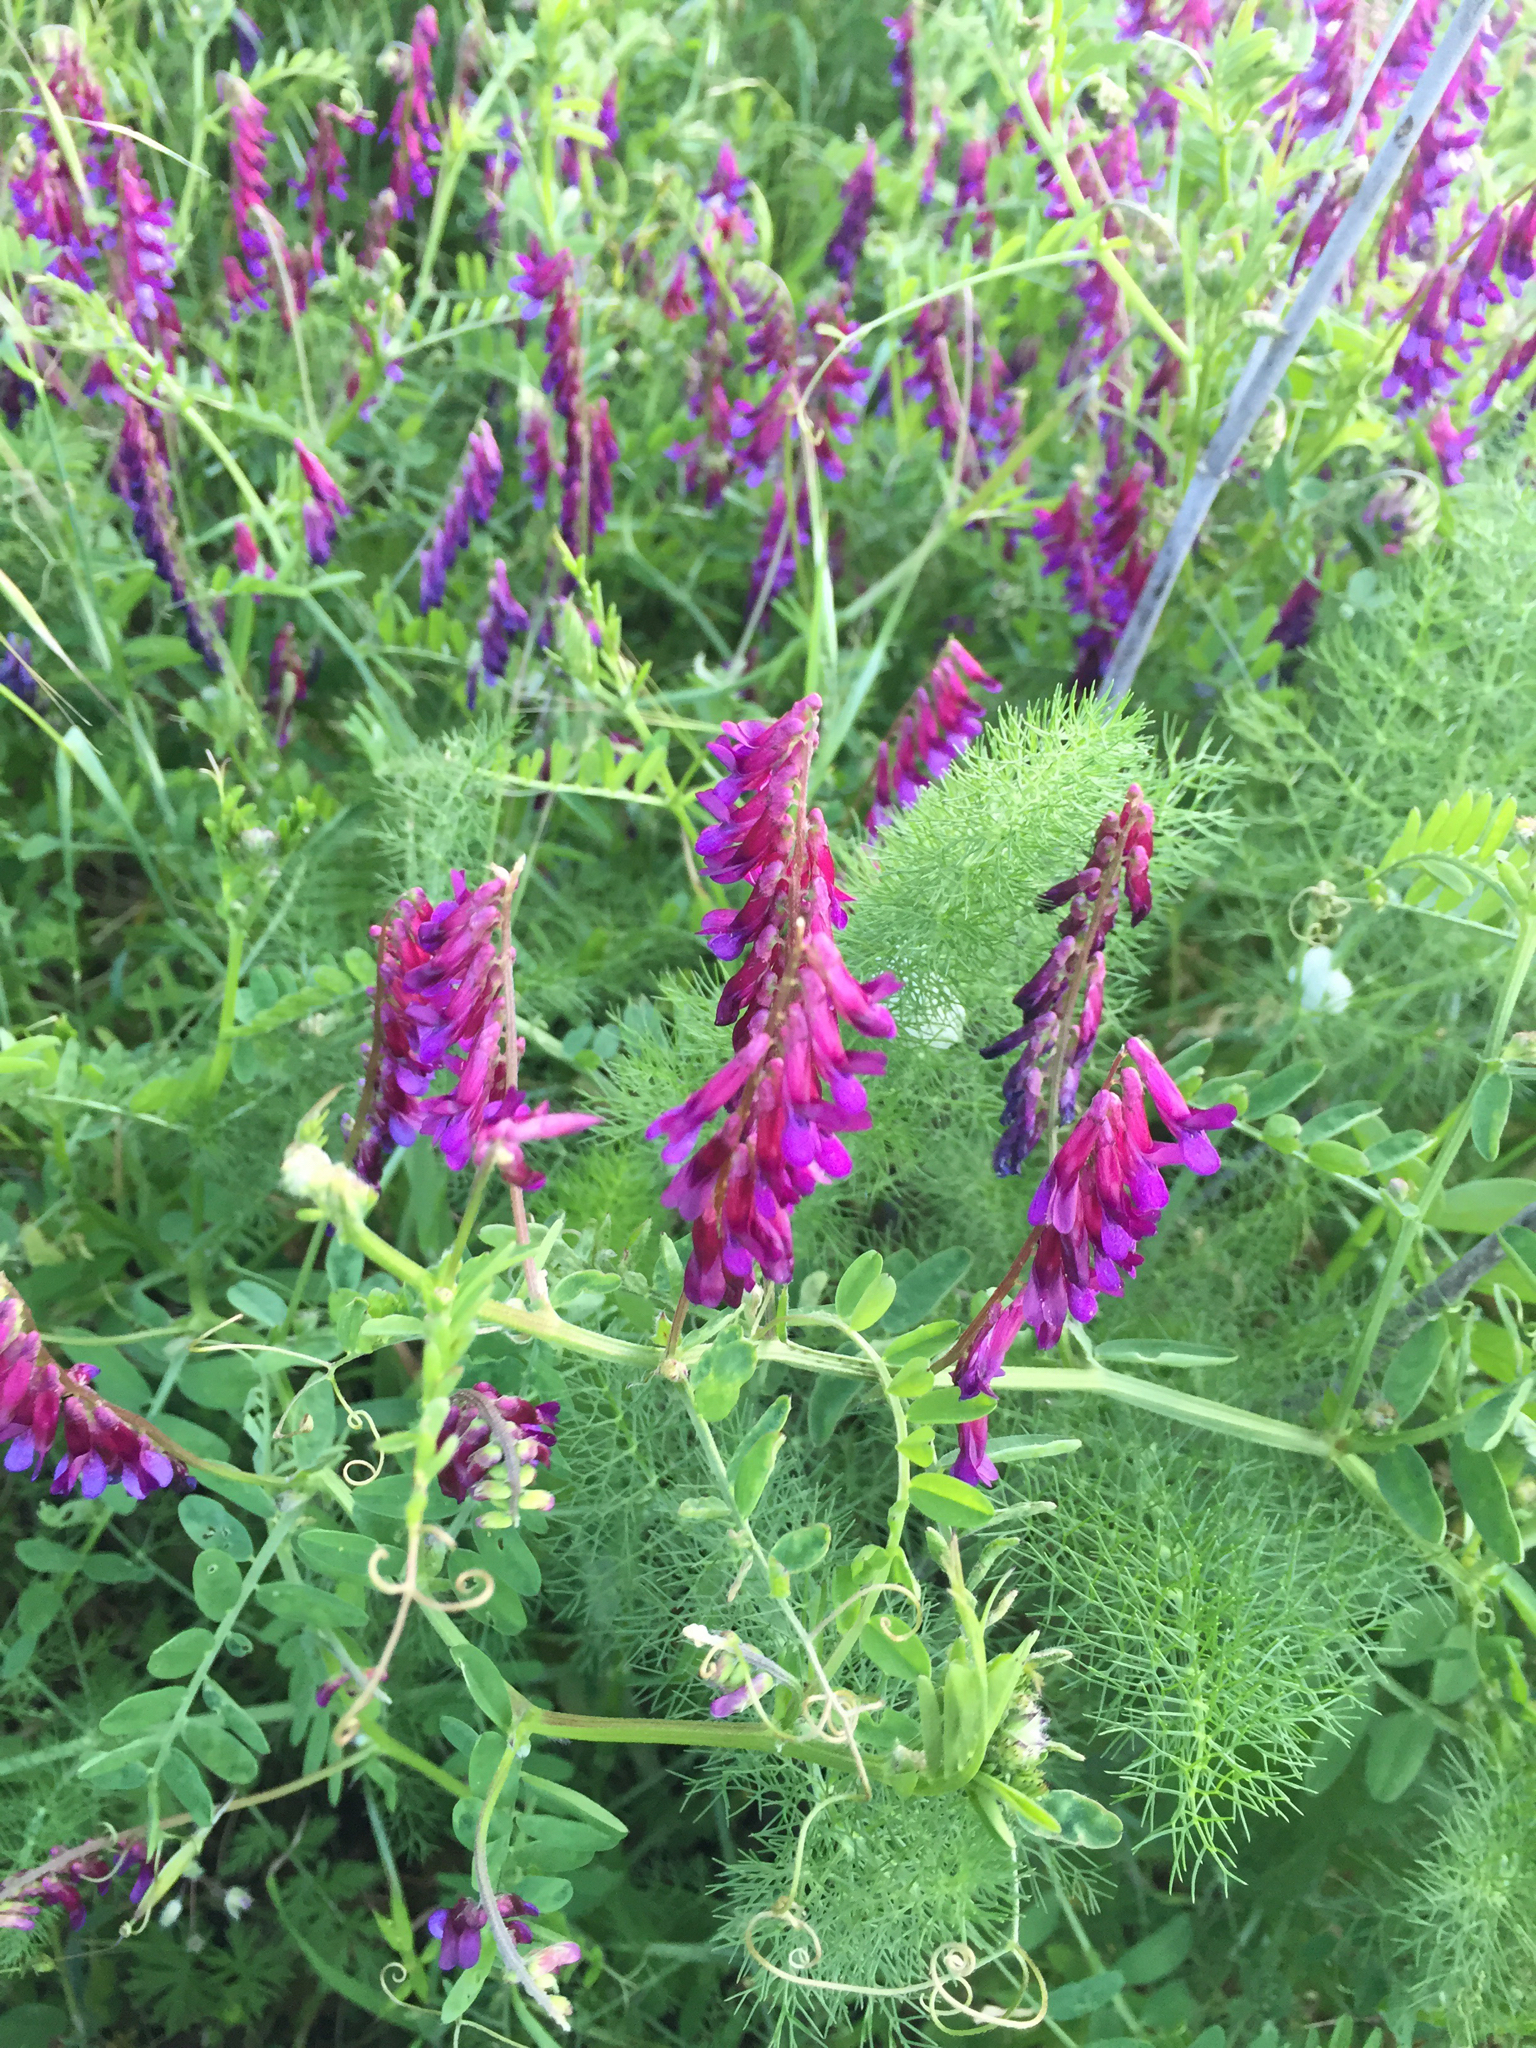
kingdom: Plantae
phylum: Tracheophyta
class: Magnoliopsida
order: Fabales
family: Fabaceae
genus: Vicia
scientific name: Vicia villosa
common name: Fodder vetch
